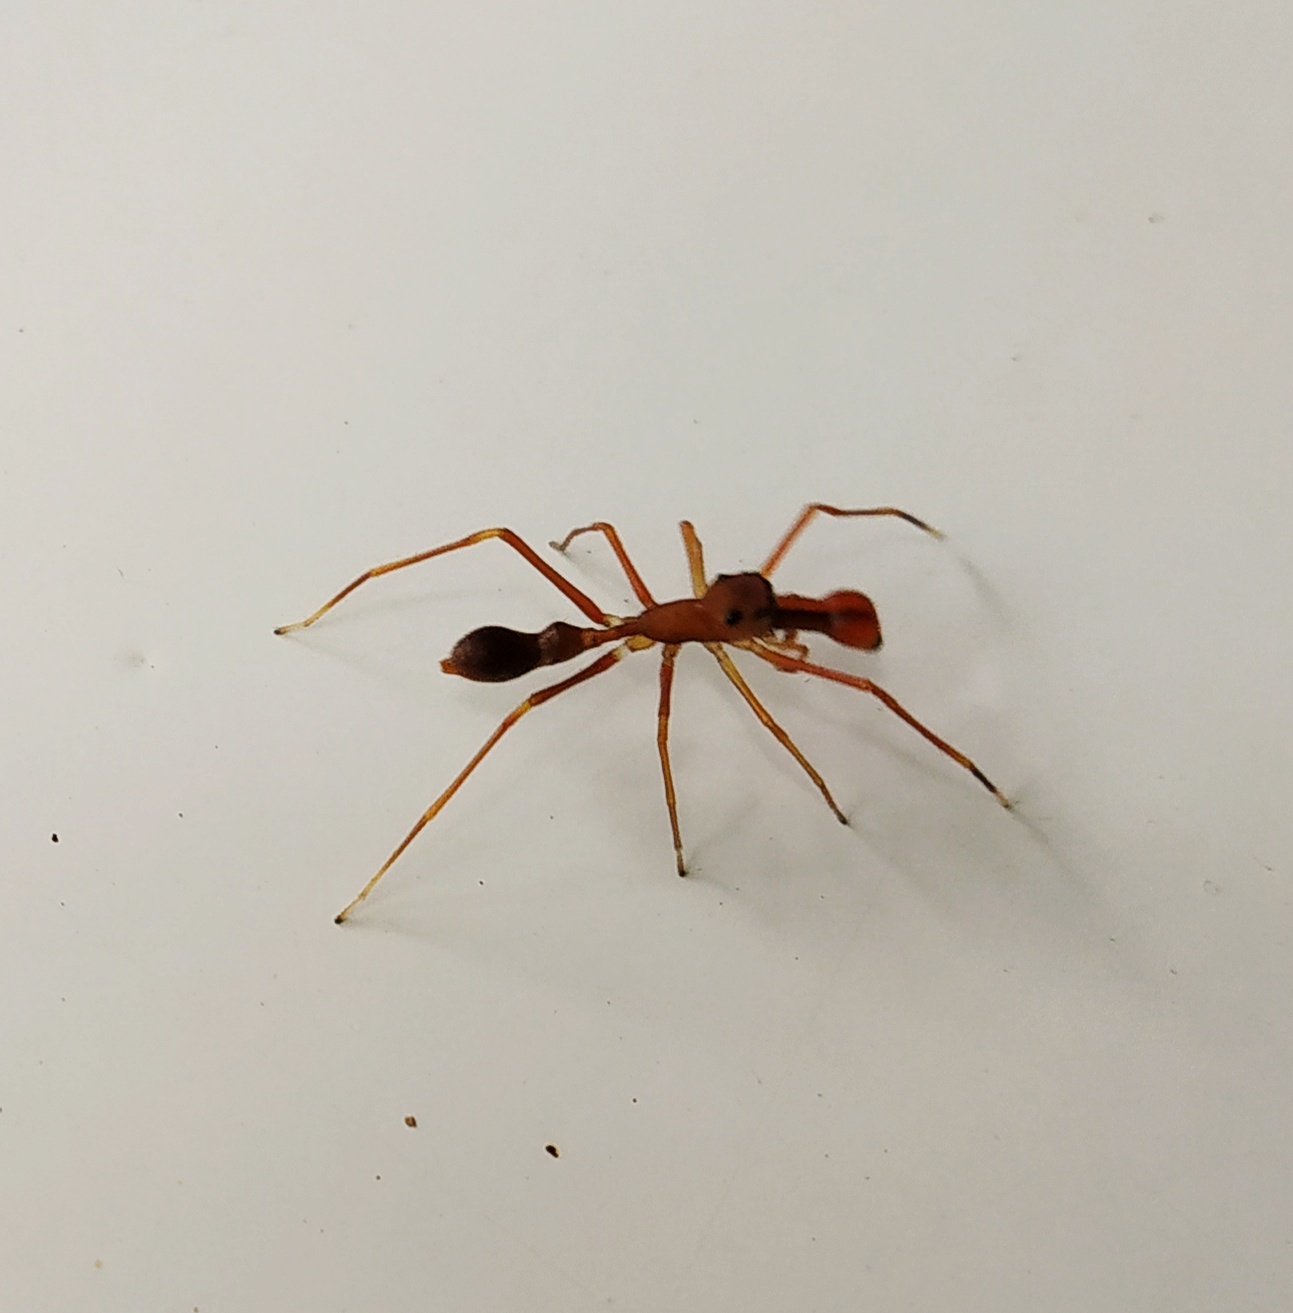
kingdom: Animalia
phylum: Arthropoda
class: Arachnida
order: Araneae
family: Salticidae
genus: Myrmaplata
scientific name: Myrmaplata plataleoides
